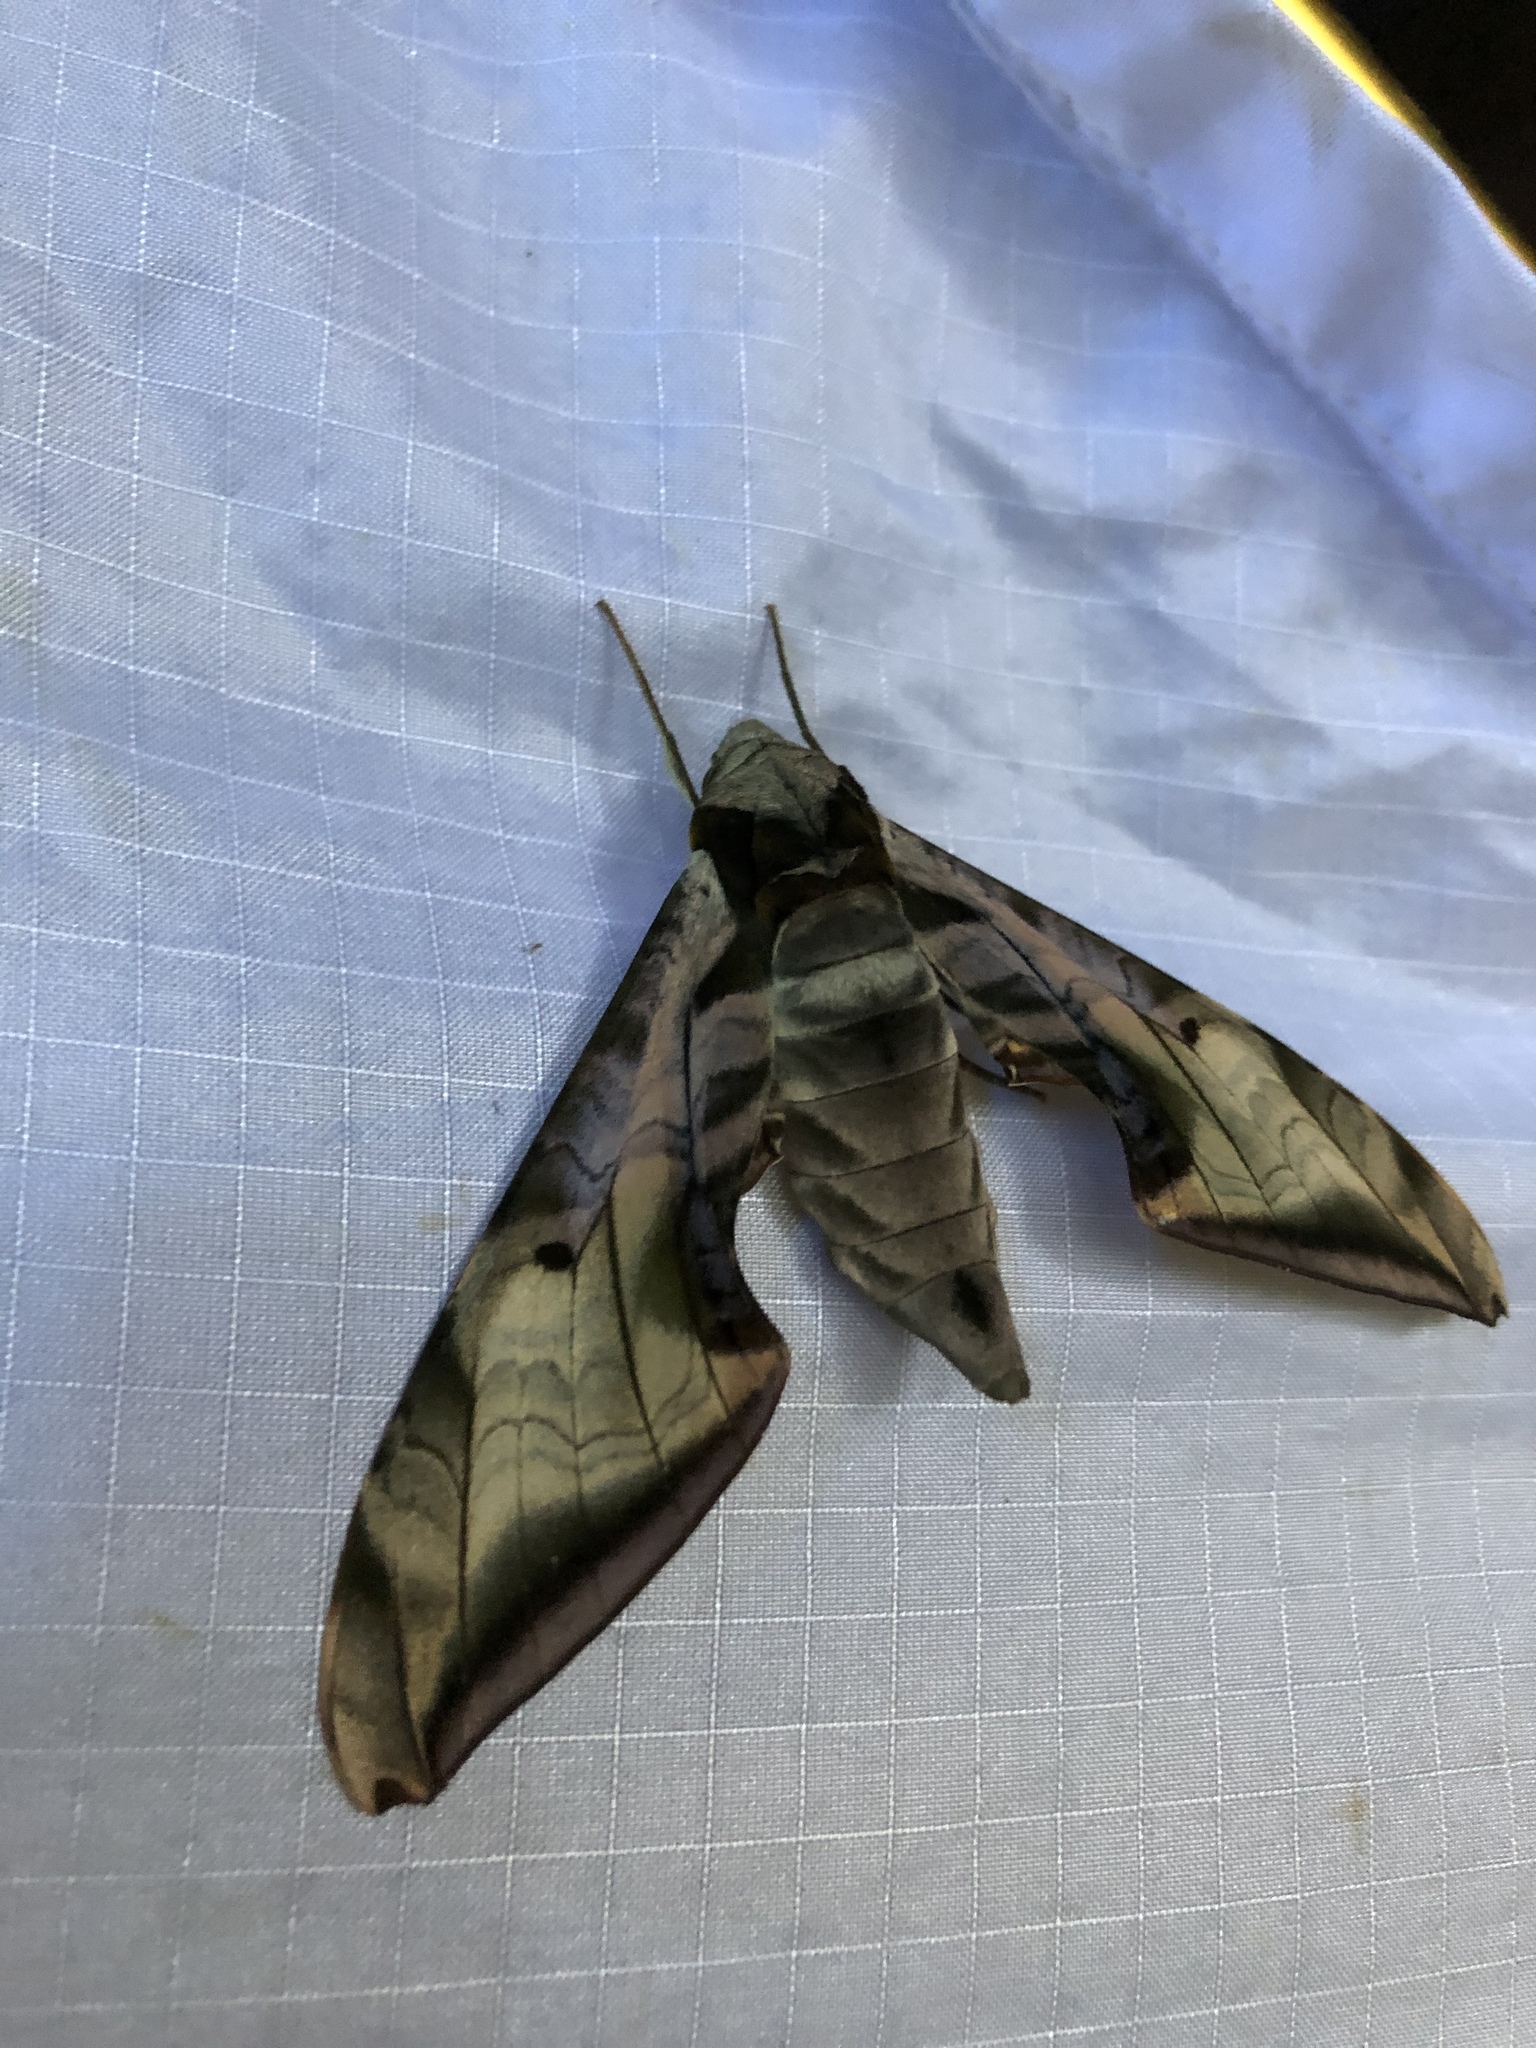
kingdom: Animalia
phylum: Arthropoda
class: Insecta
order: Lepidoptera
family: Sphingidae
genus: Protambulyx
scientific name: Protambulyx goeldii
